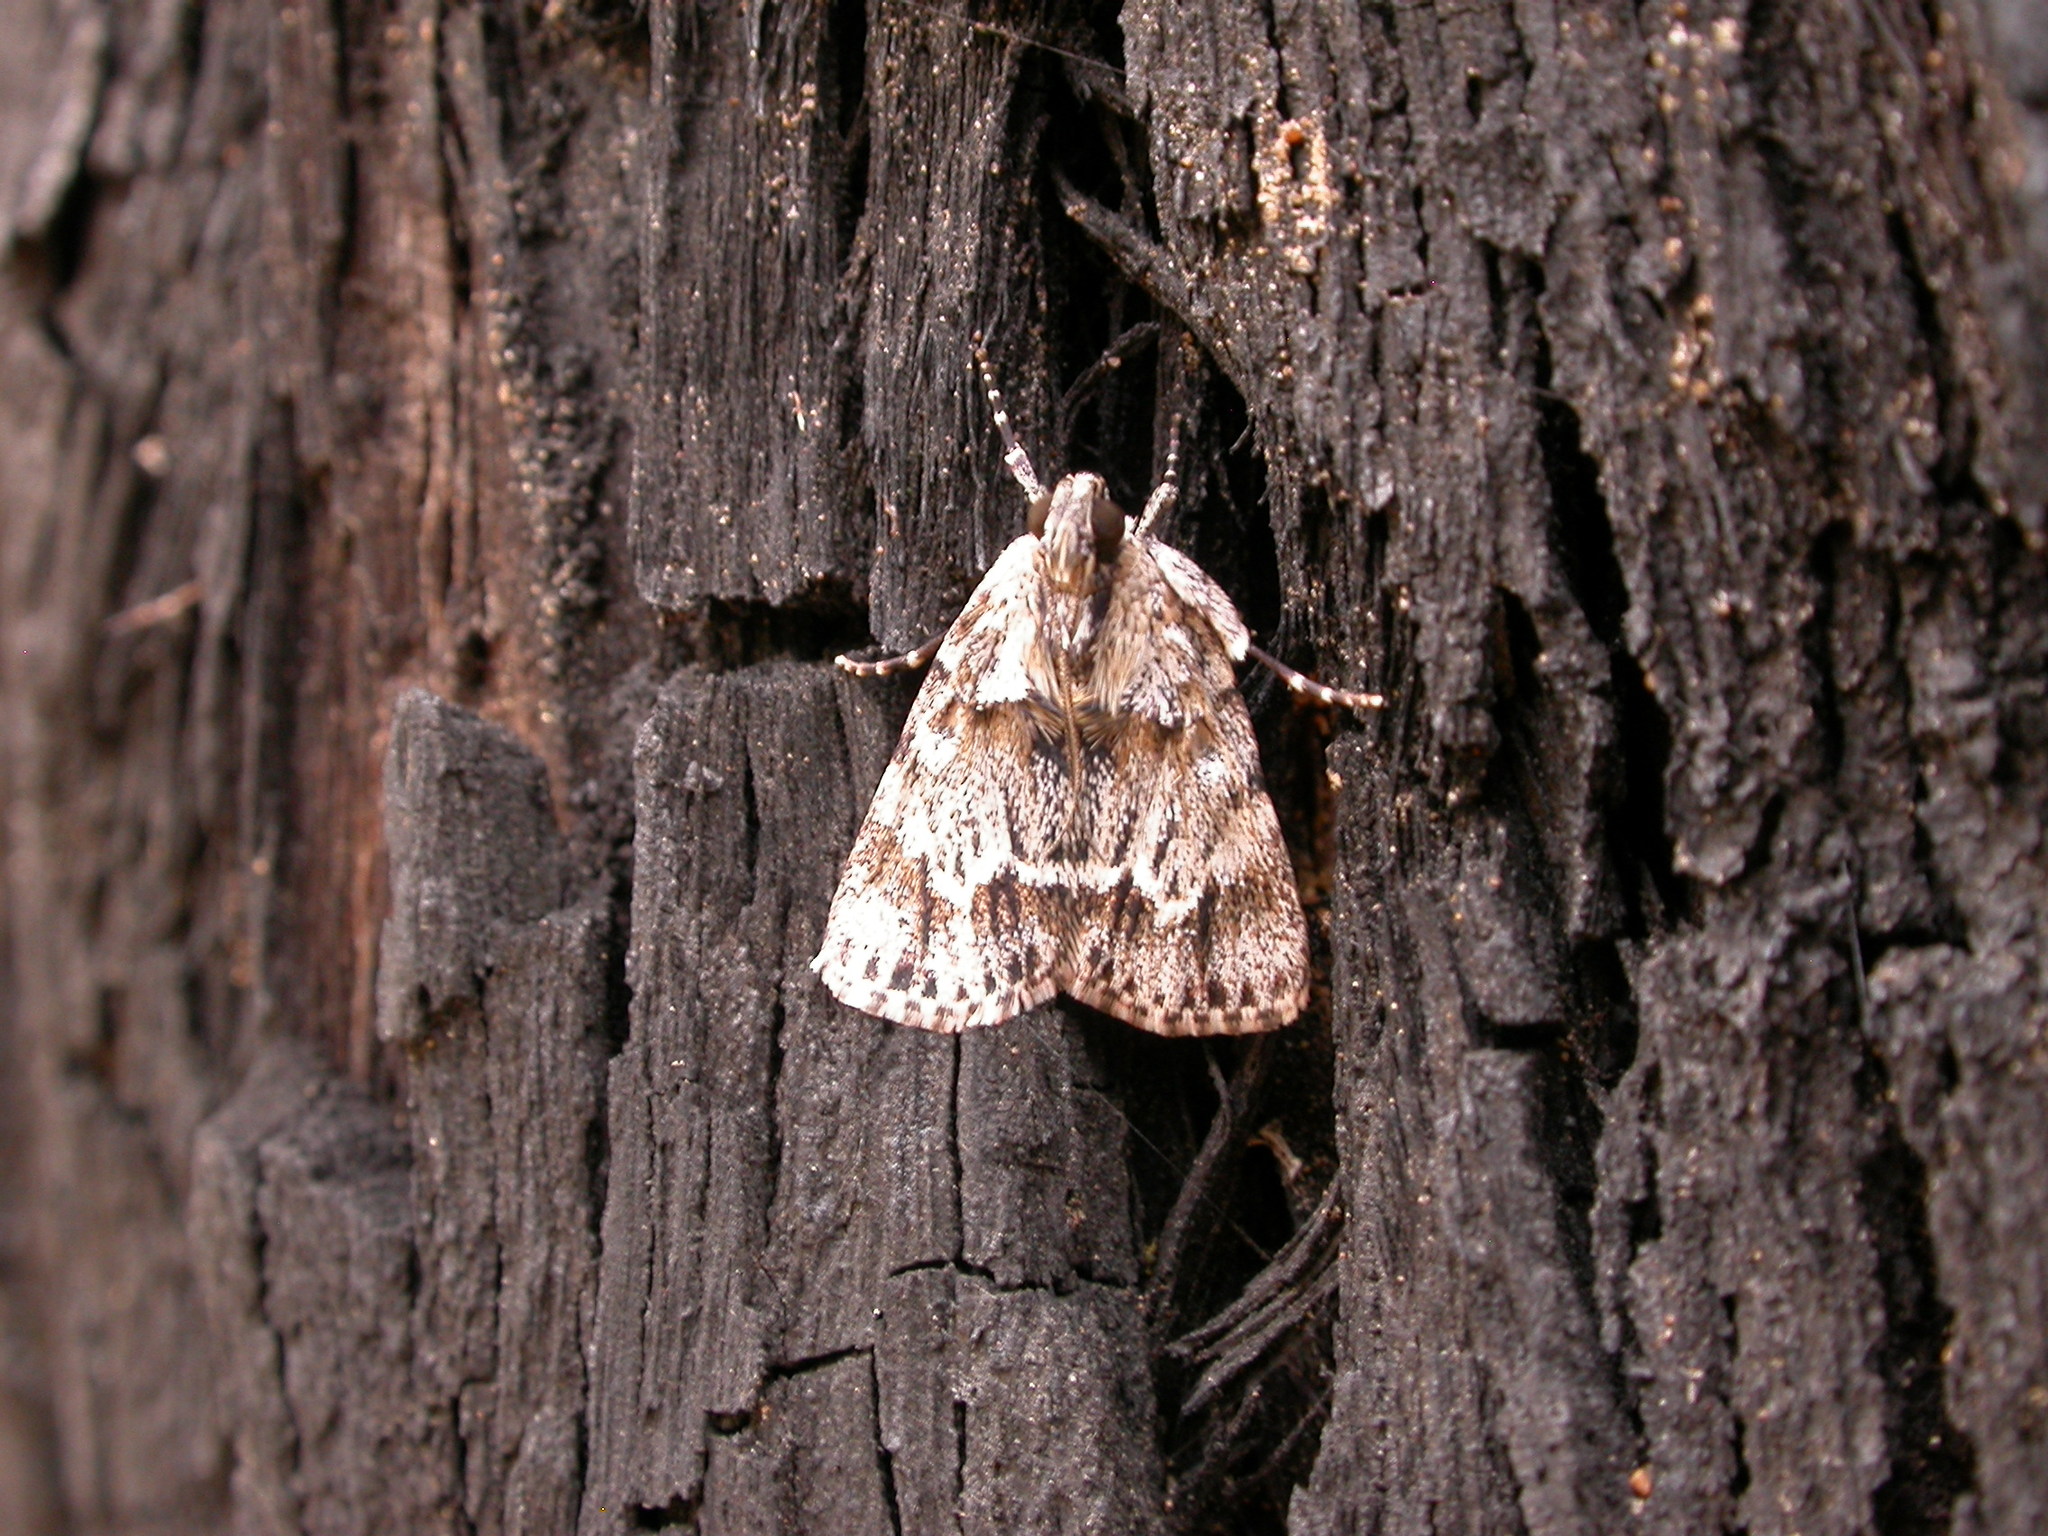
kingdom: Animalia
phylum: Arthropoda
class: Insecta
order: Lepidoptera
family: Pyralidae
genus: Spectrotrota
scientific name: Spectrotrota fimbrialis
